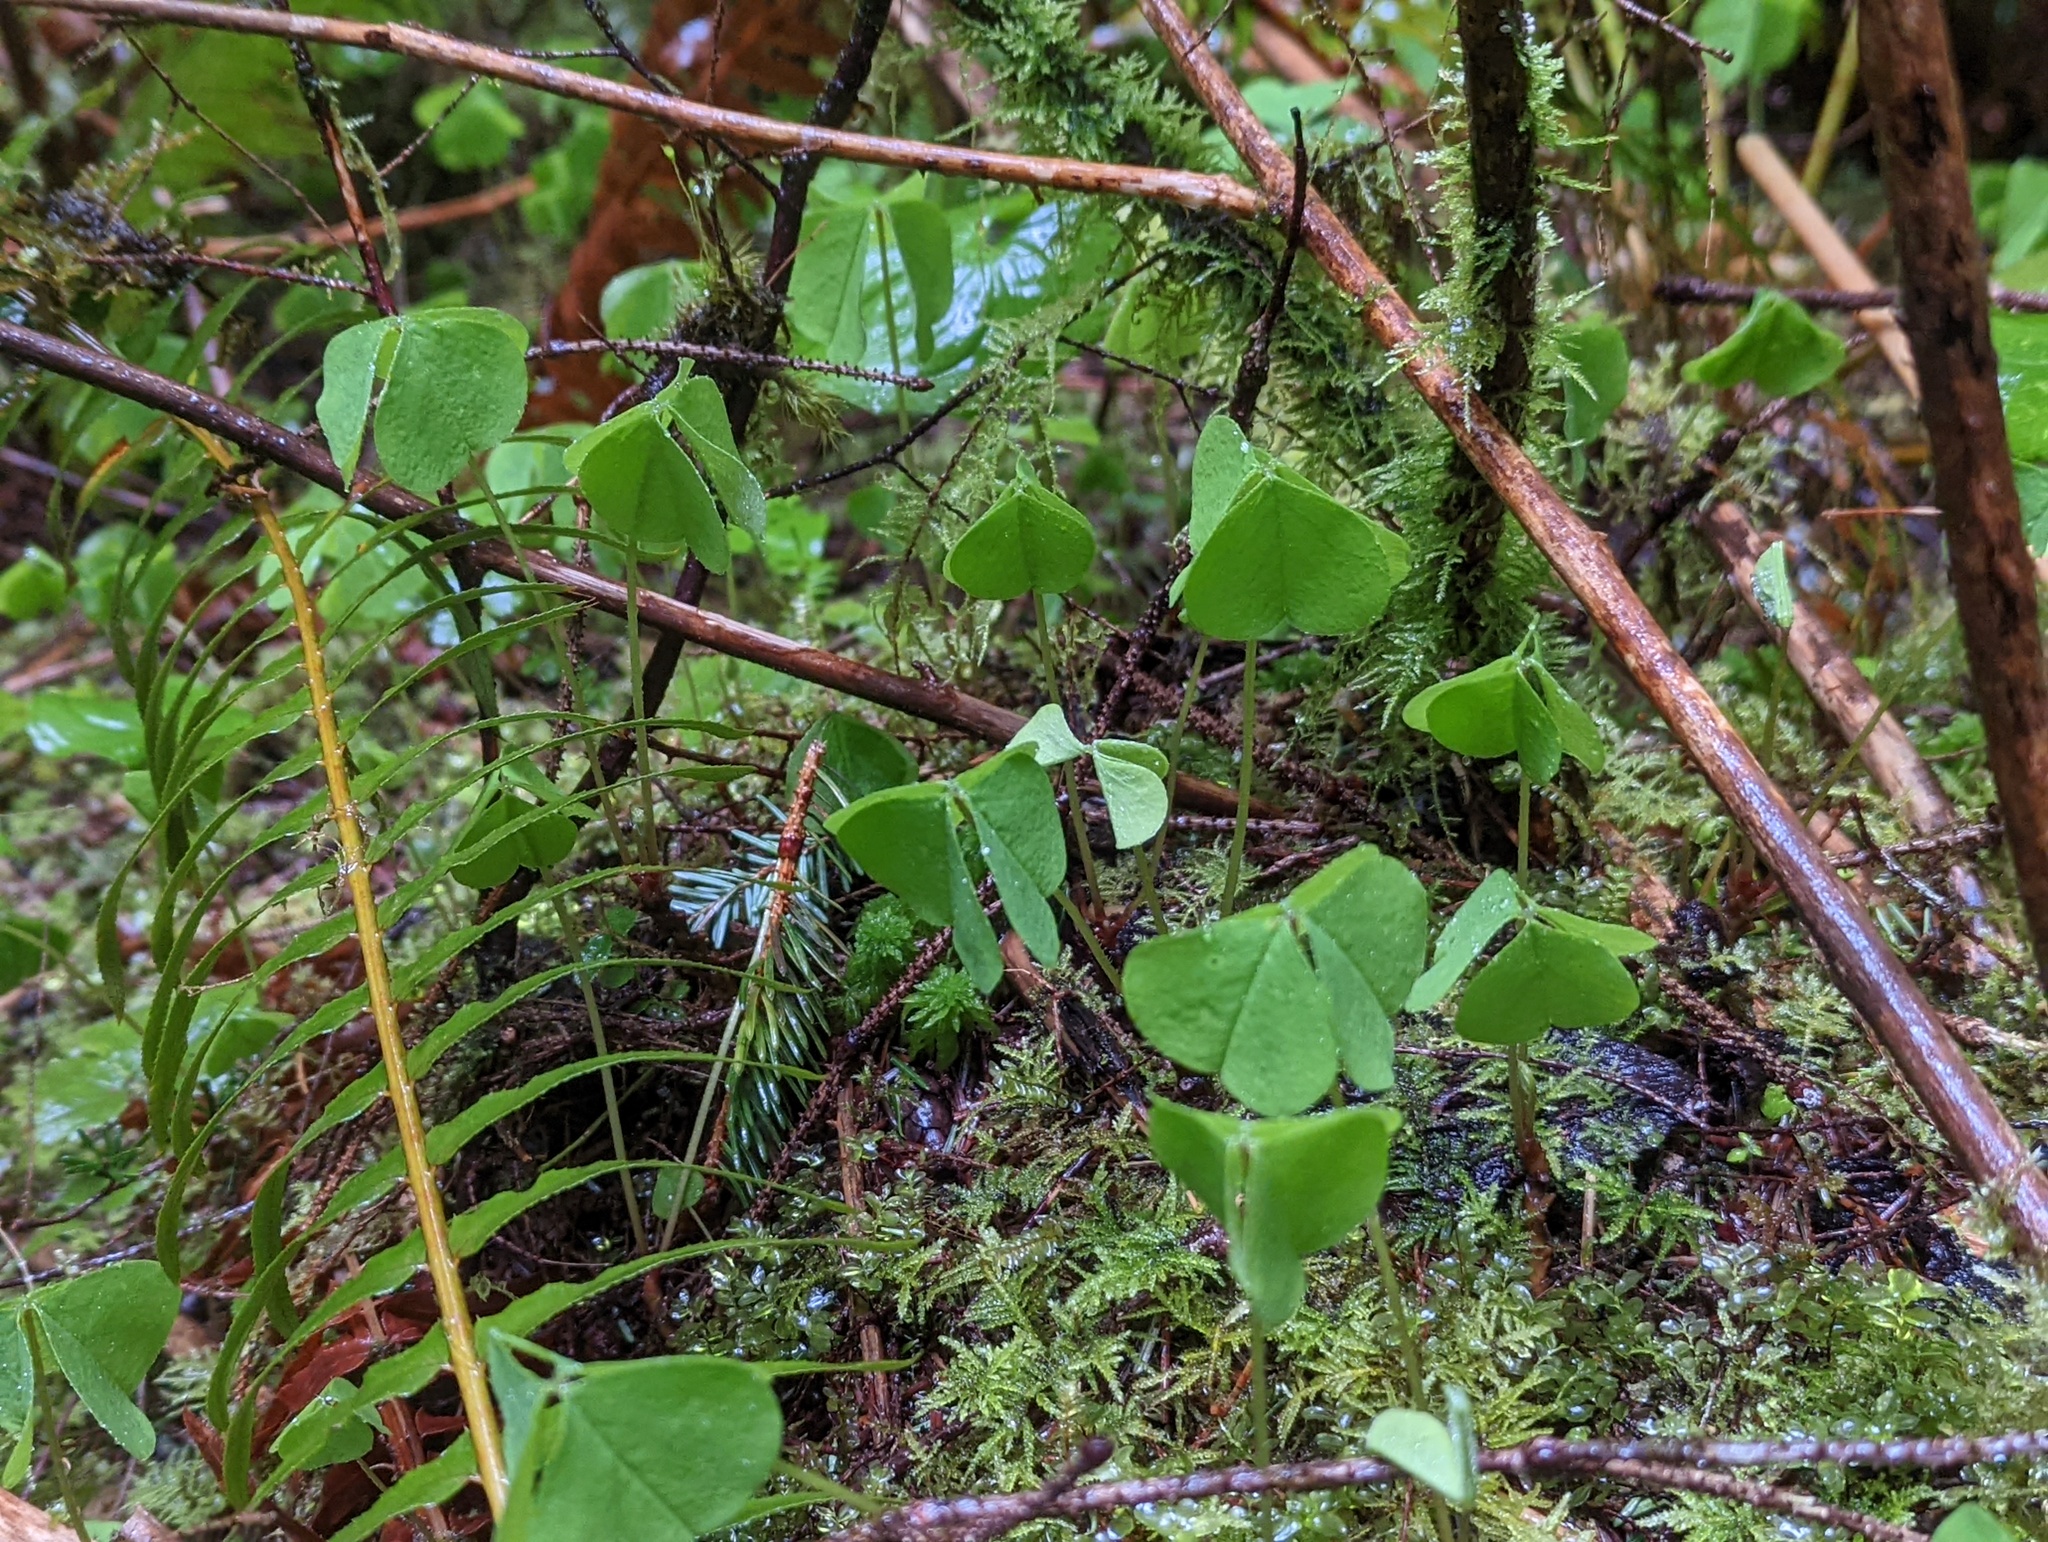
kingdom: Plantae
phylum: Tracheophyta
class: Magnoliopsida
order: Oxalidales
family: Oxalidaceae
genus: Oxalis
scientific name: Oxalis oregana
